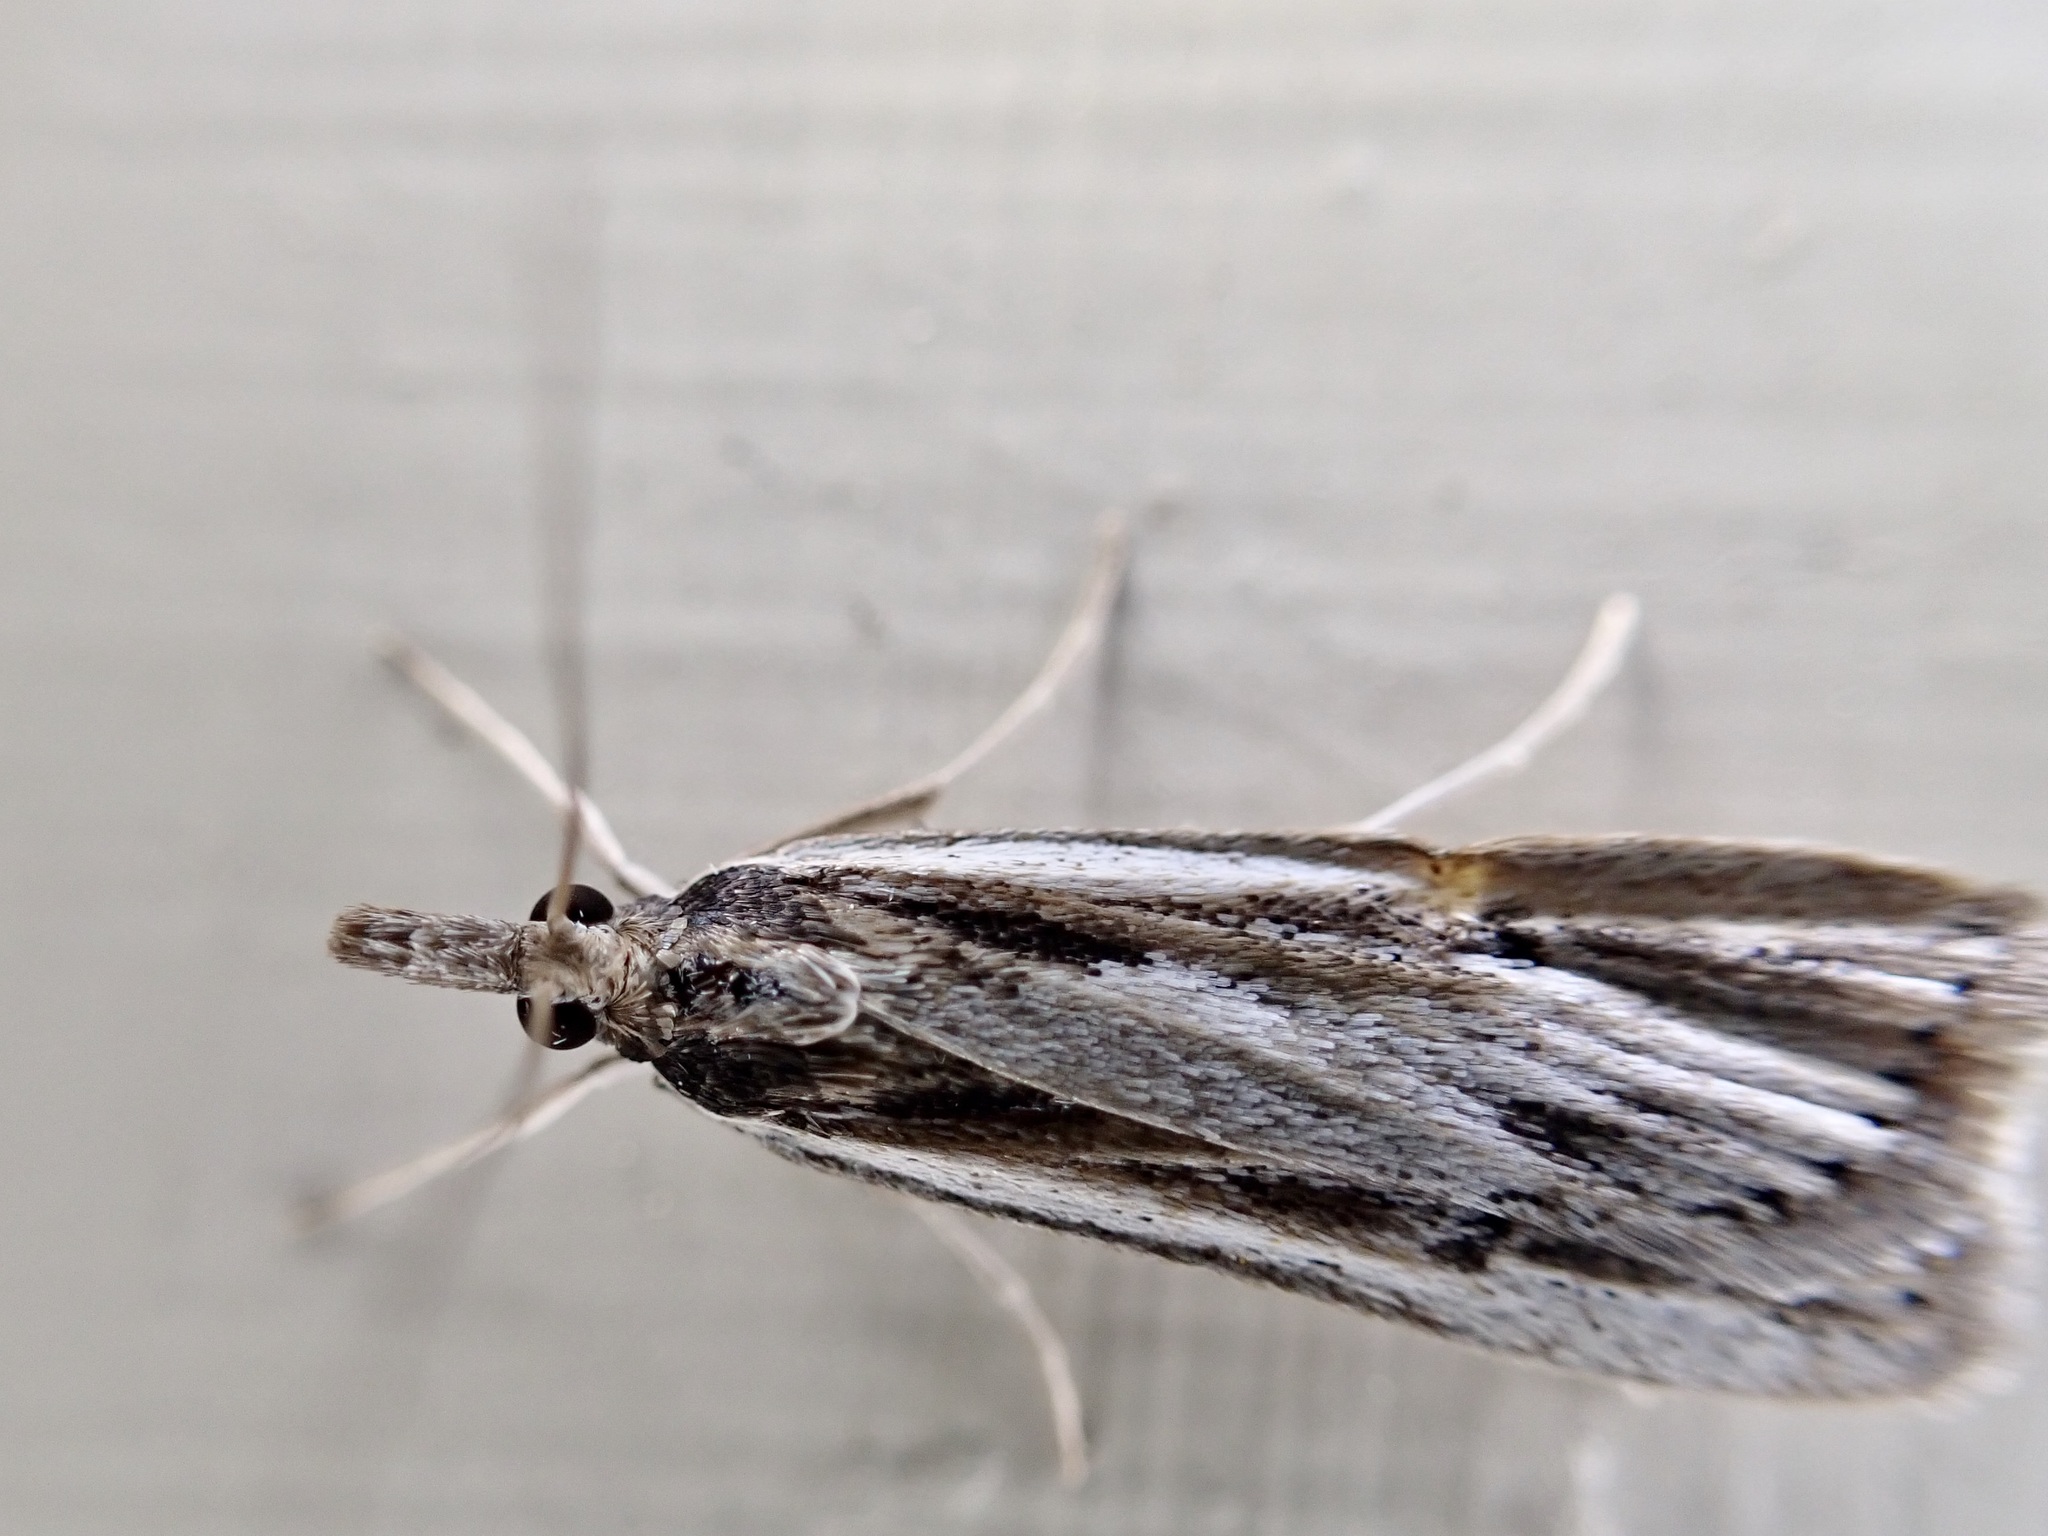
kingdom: Animalia
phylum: Arthropoda
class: Insecta
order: Lepidoptera
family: Crambidae
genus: Eudonia
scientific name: Eudonia sabulosella
